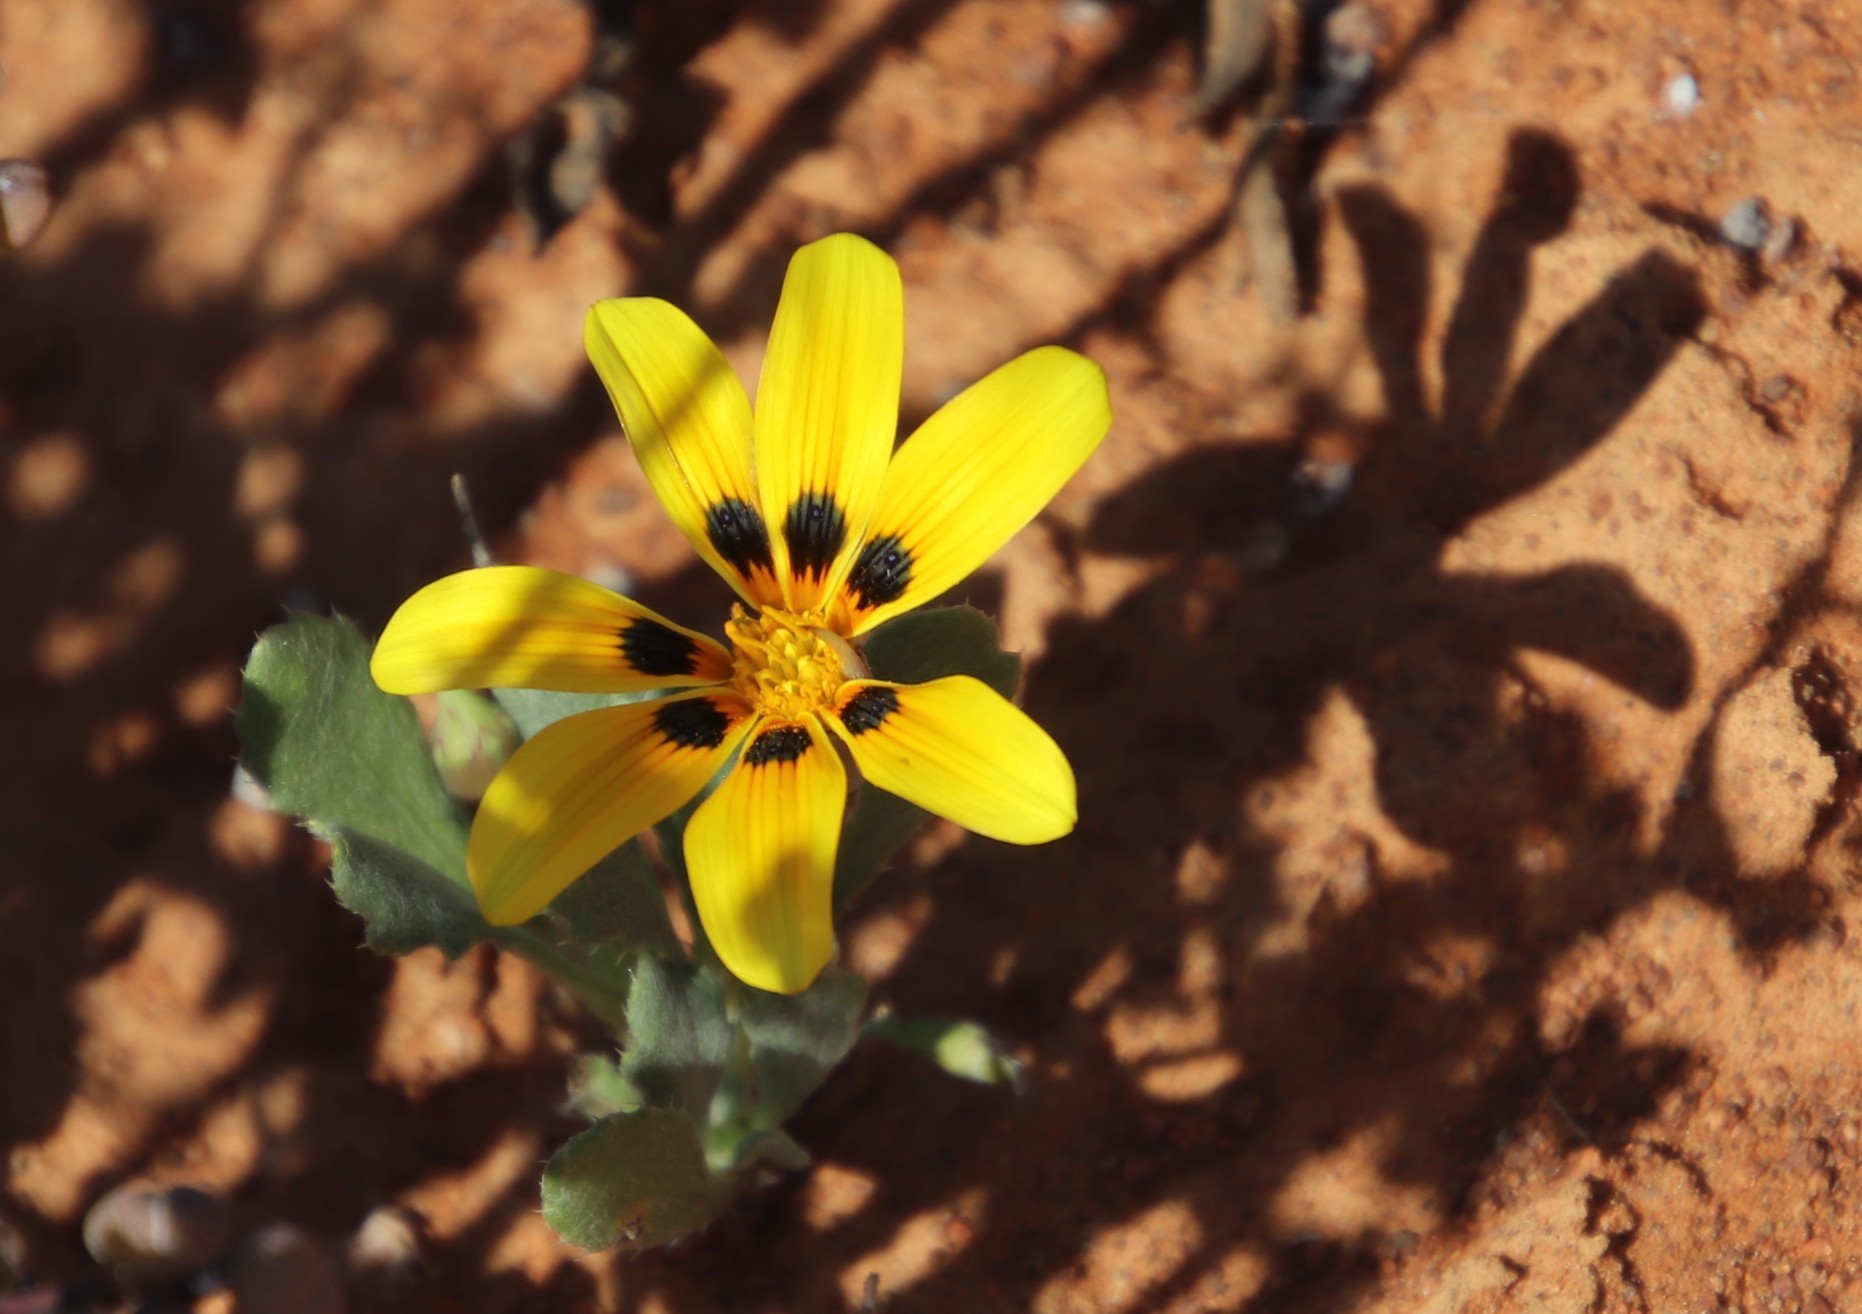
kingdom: Plantae
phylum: Tracheophyta
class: Magnoliopsida
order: Asterales
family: Asteraceae
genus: Gazania
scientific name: Gazania lichtensteinii
